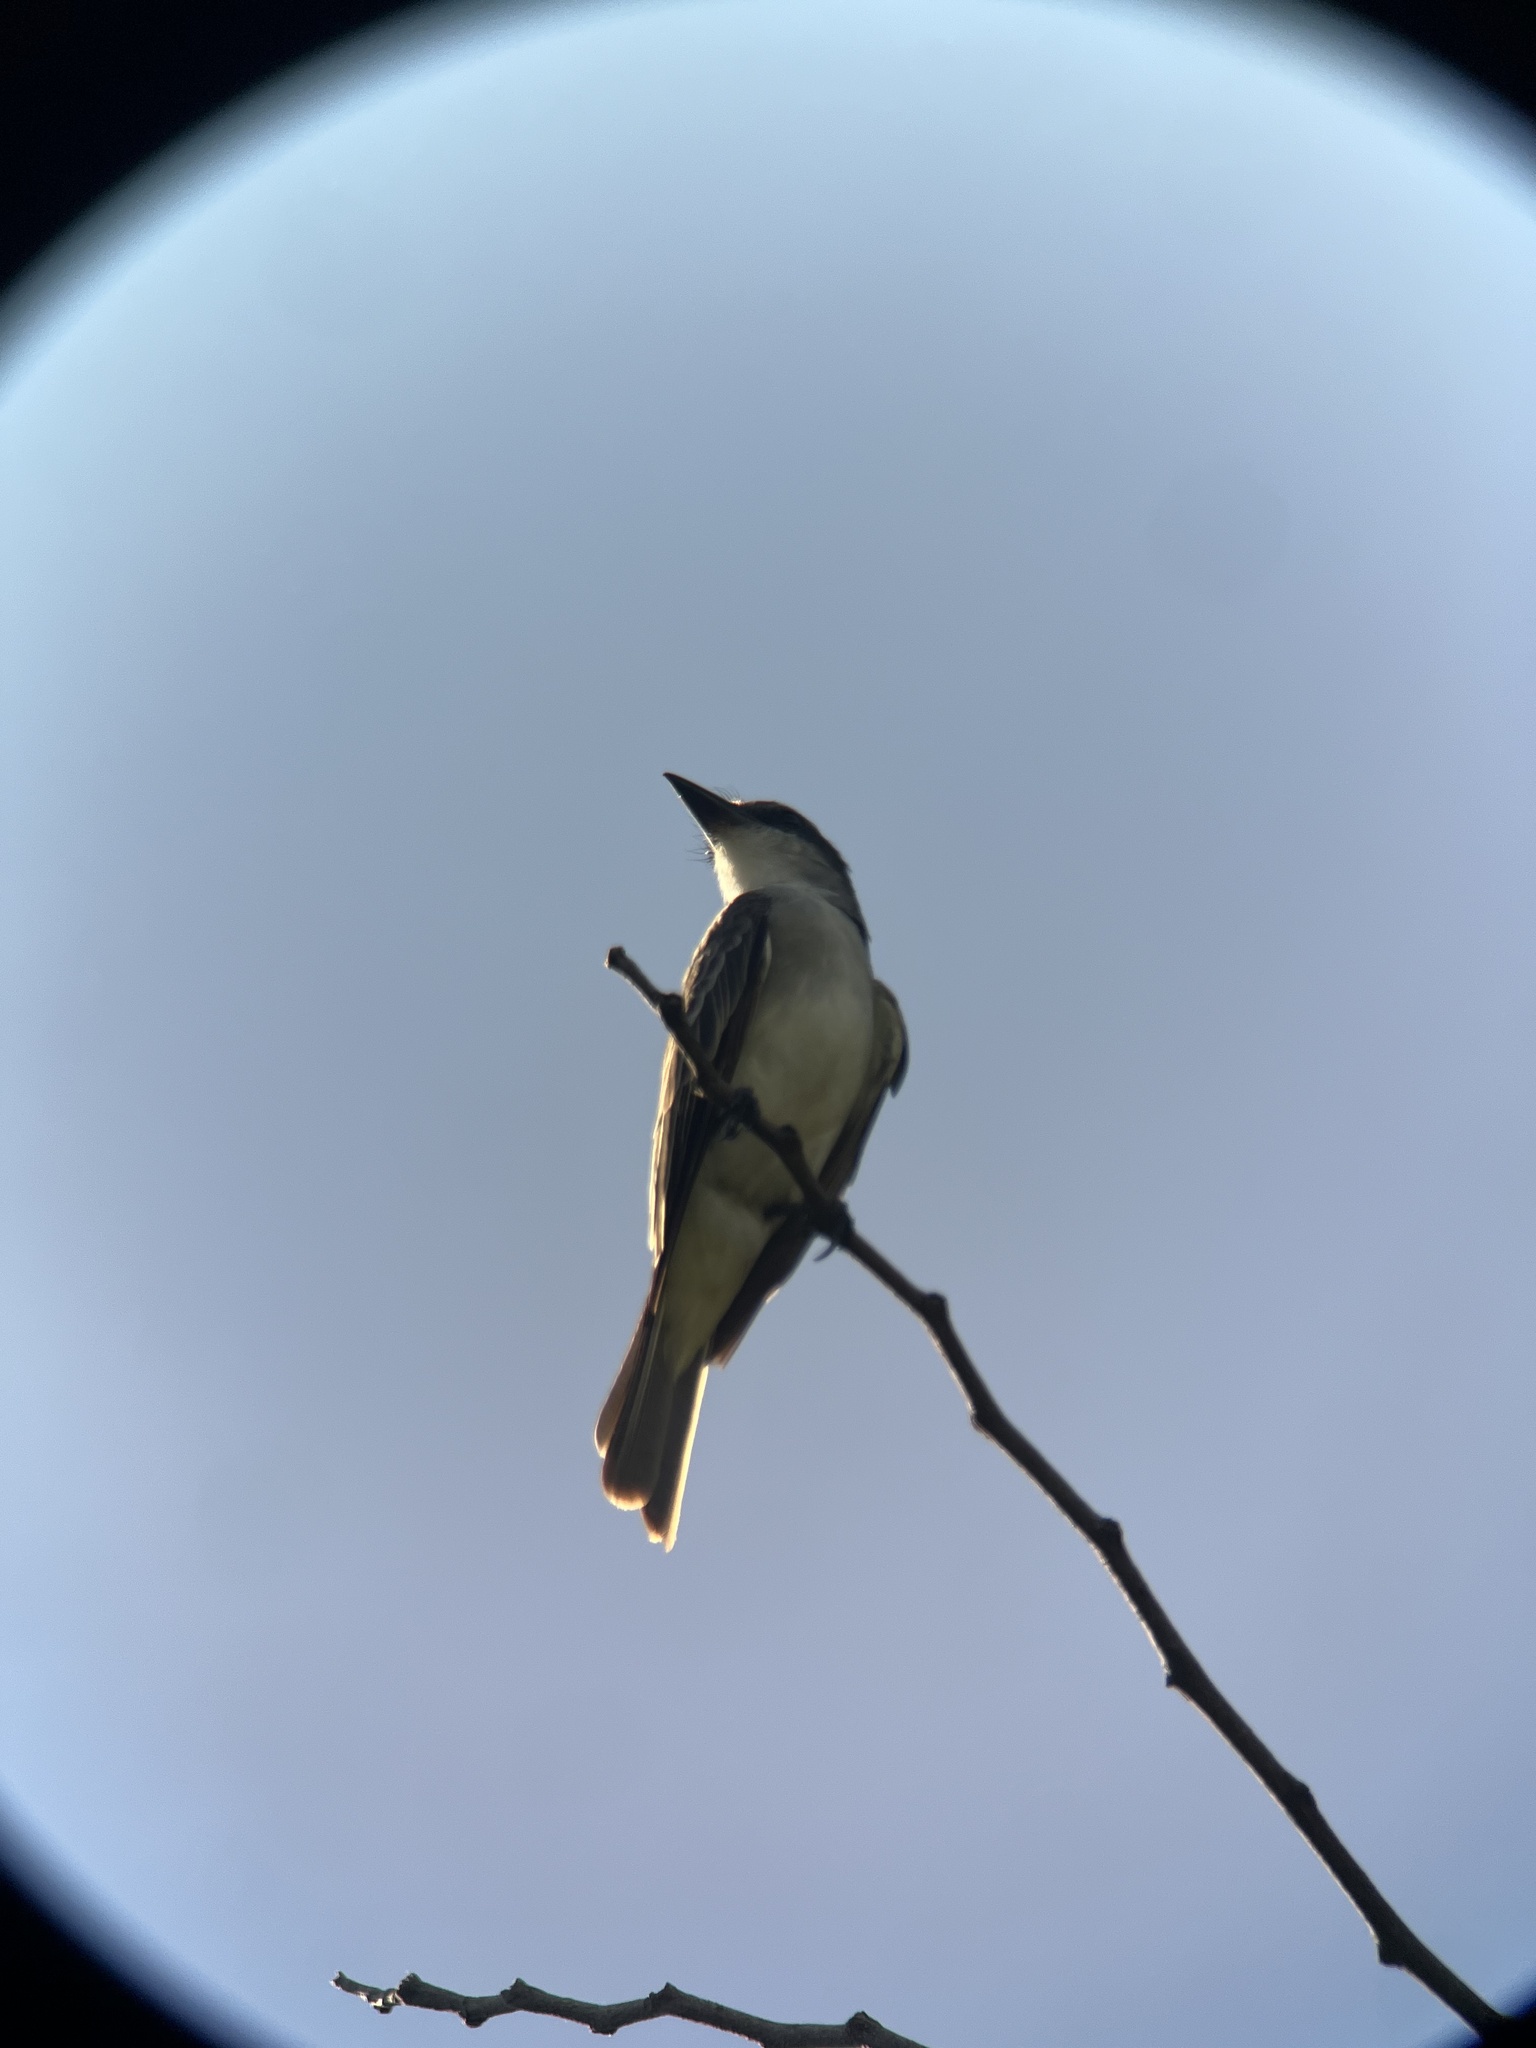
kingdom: Animalia
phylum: Chordata
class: Aves
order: Passeriformes
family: Tyrannidae
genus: Tyrannus
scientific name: Tyrannus dominicensis
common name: Gray kingbird
